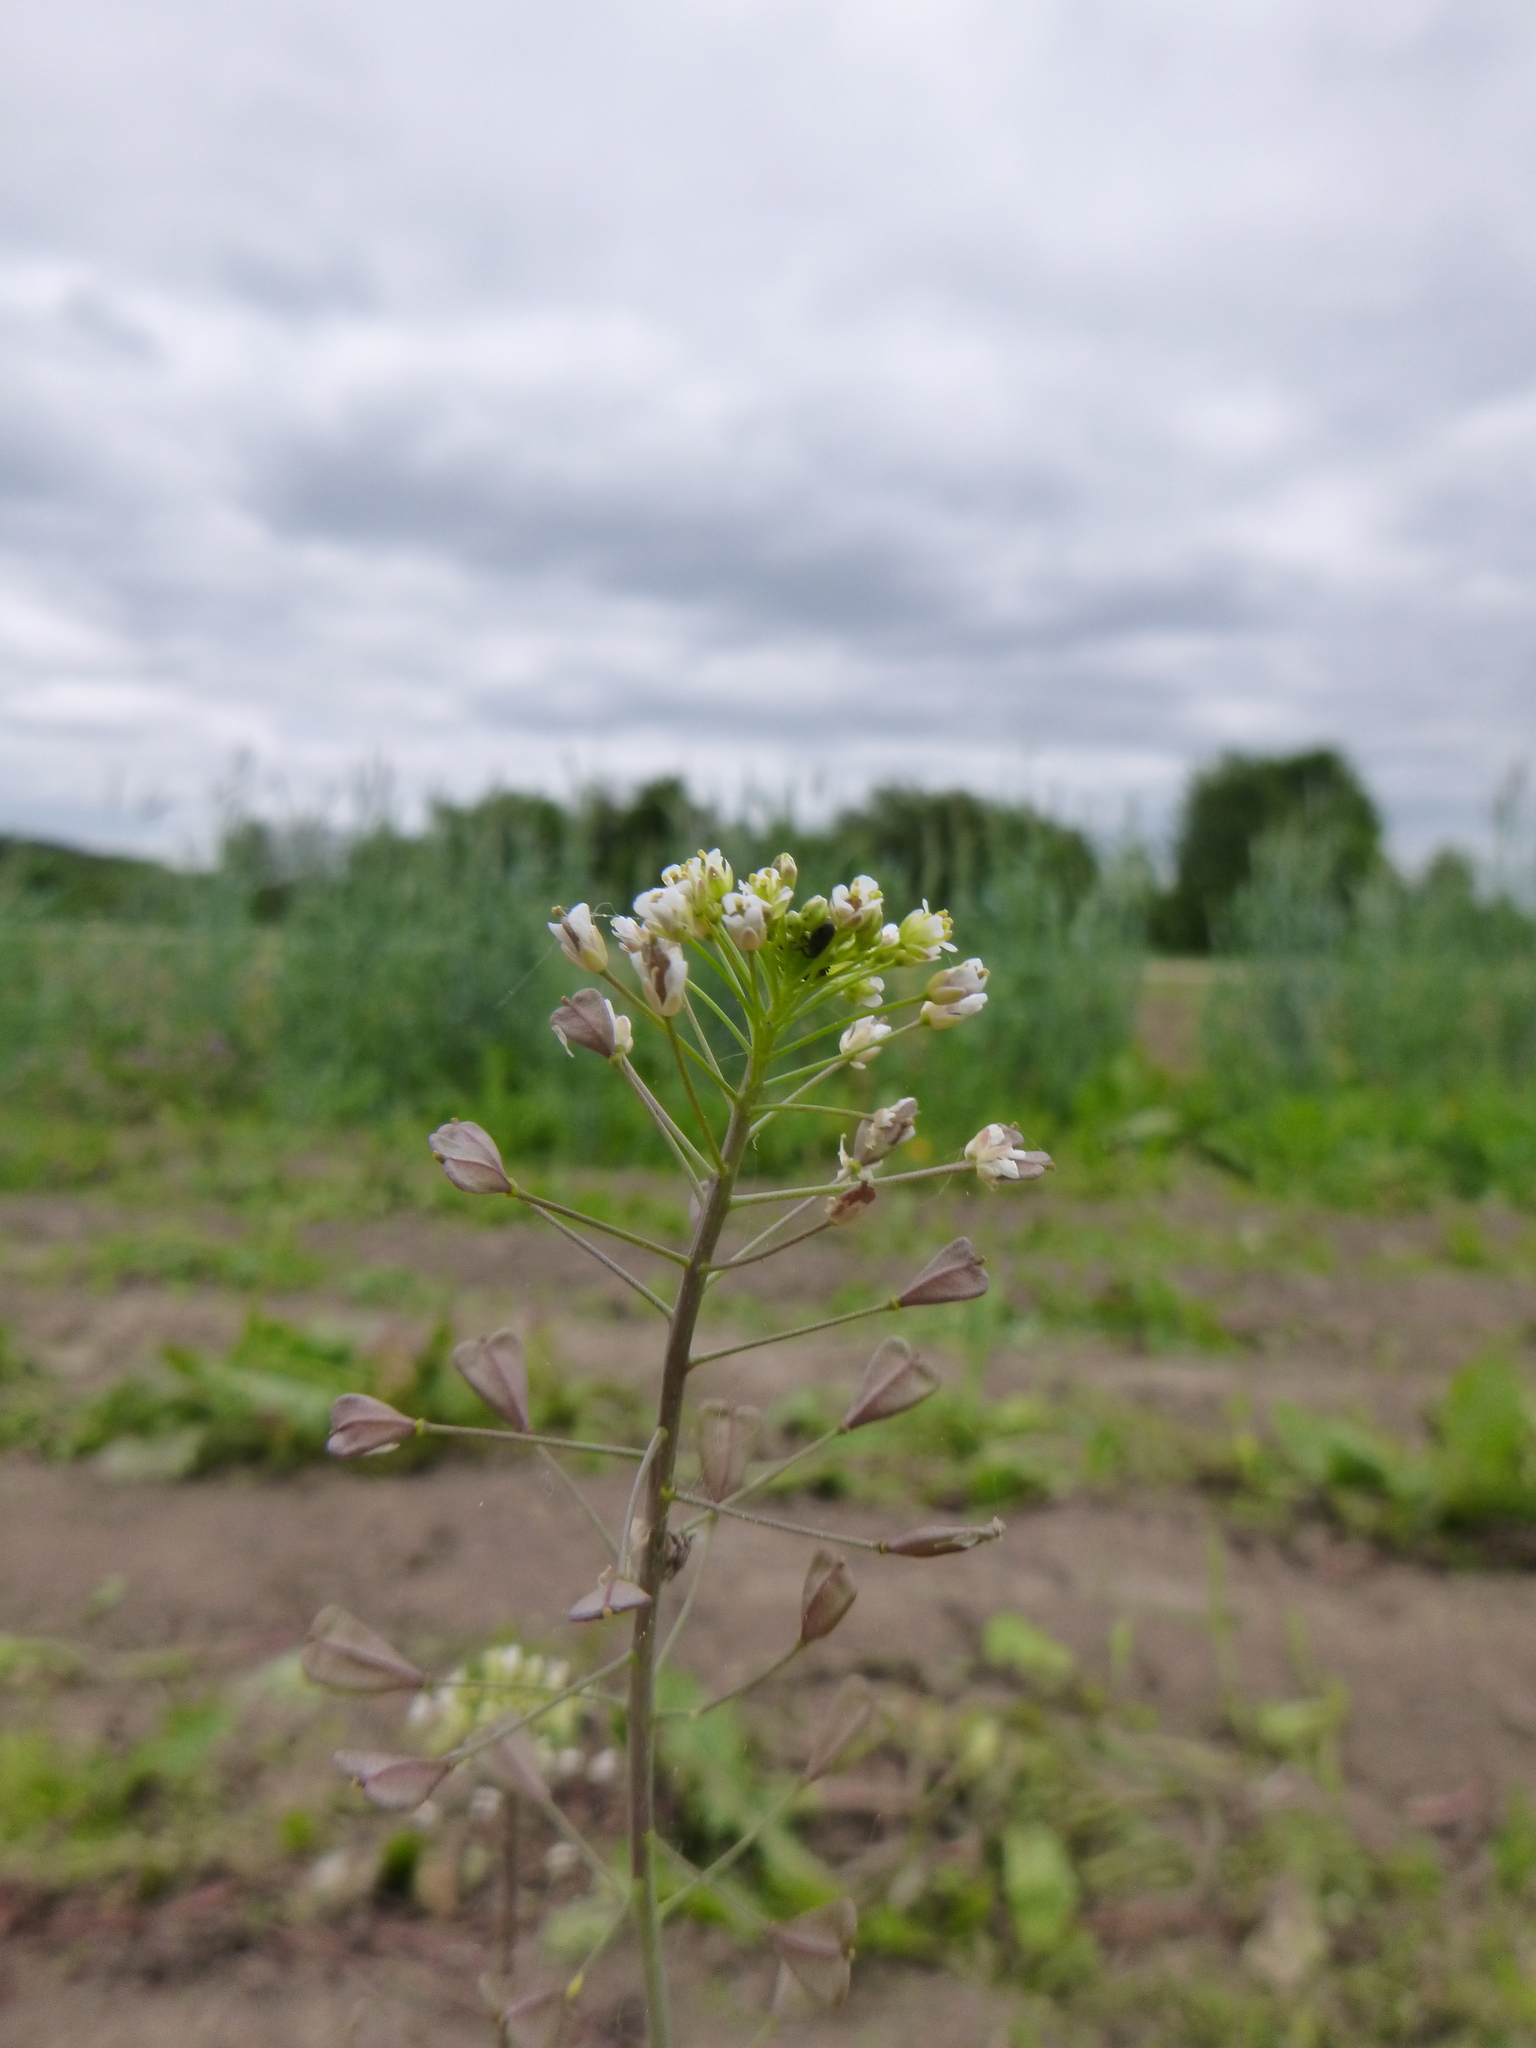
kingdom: Plantae
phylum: Tracheophyta
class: Magnoliopsida
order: Brassicales
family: Brassicaceae
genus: Capsella
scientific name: Capsella bursa-pastoris
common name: Shepherd's purse
